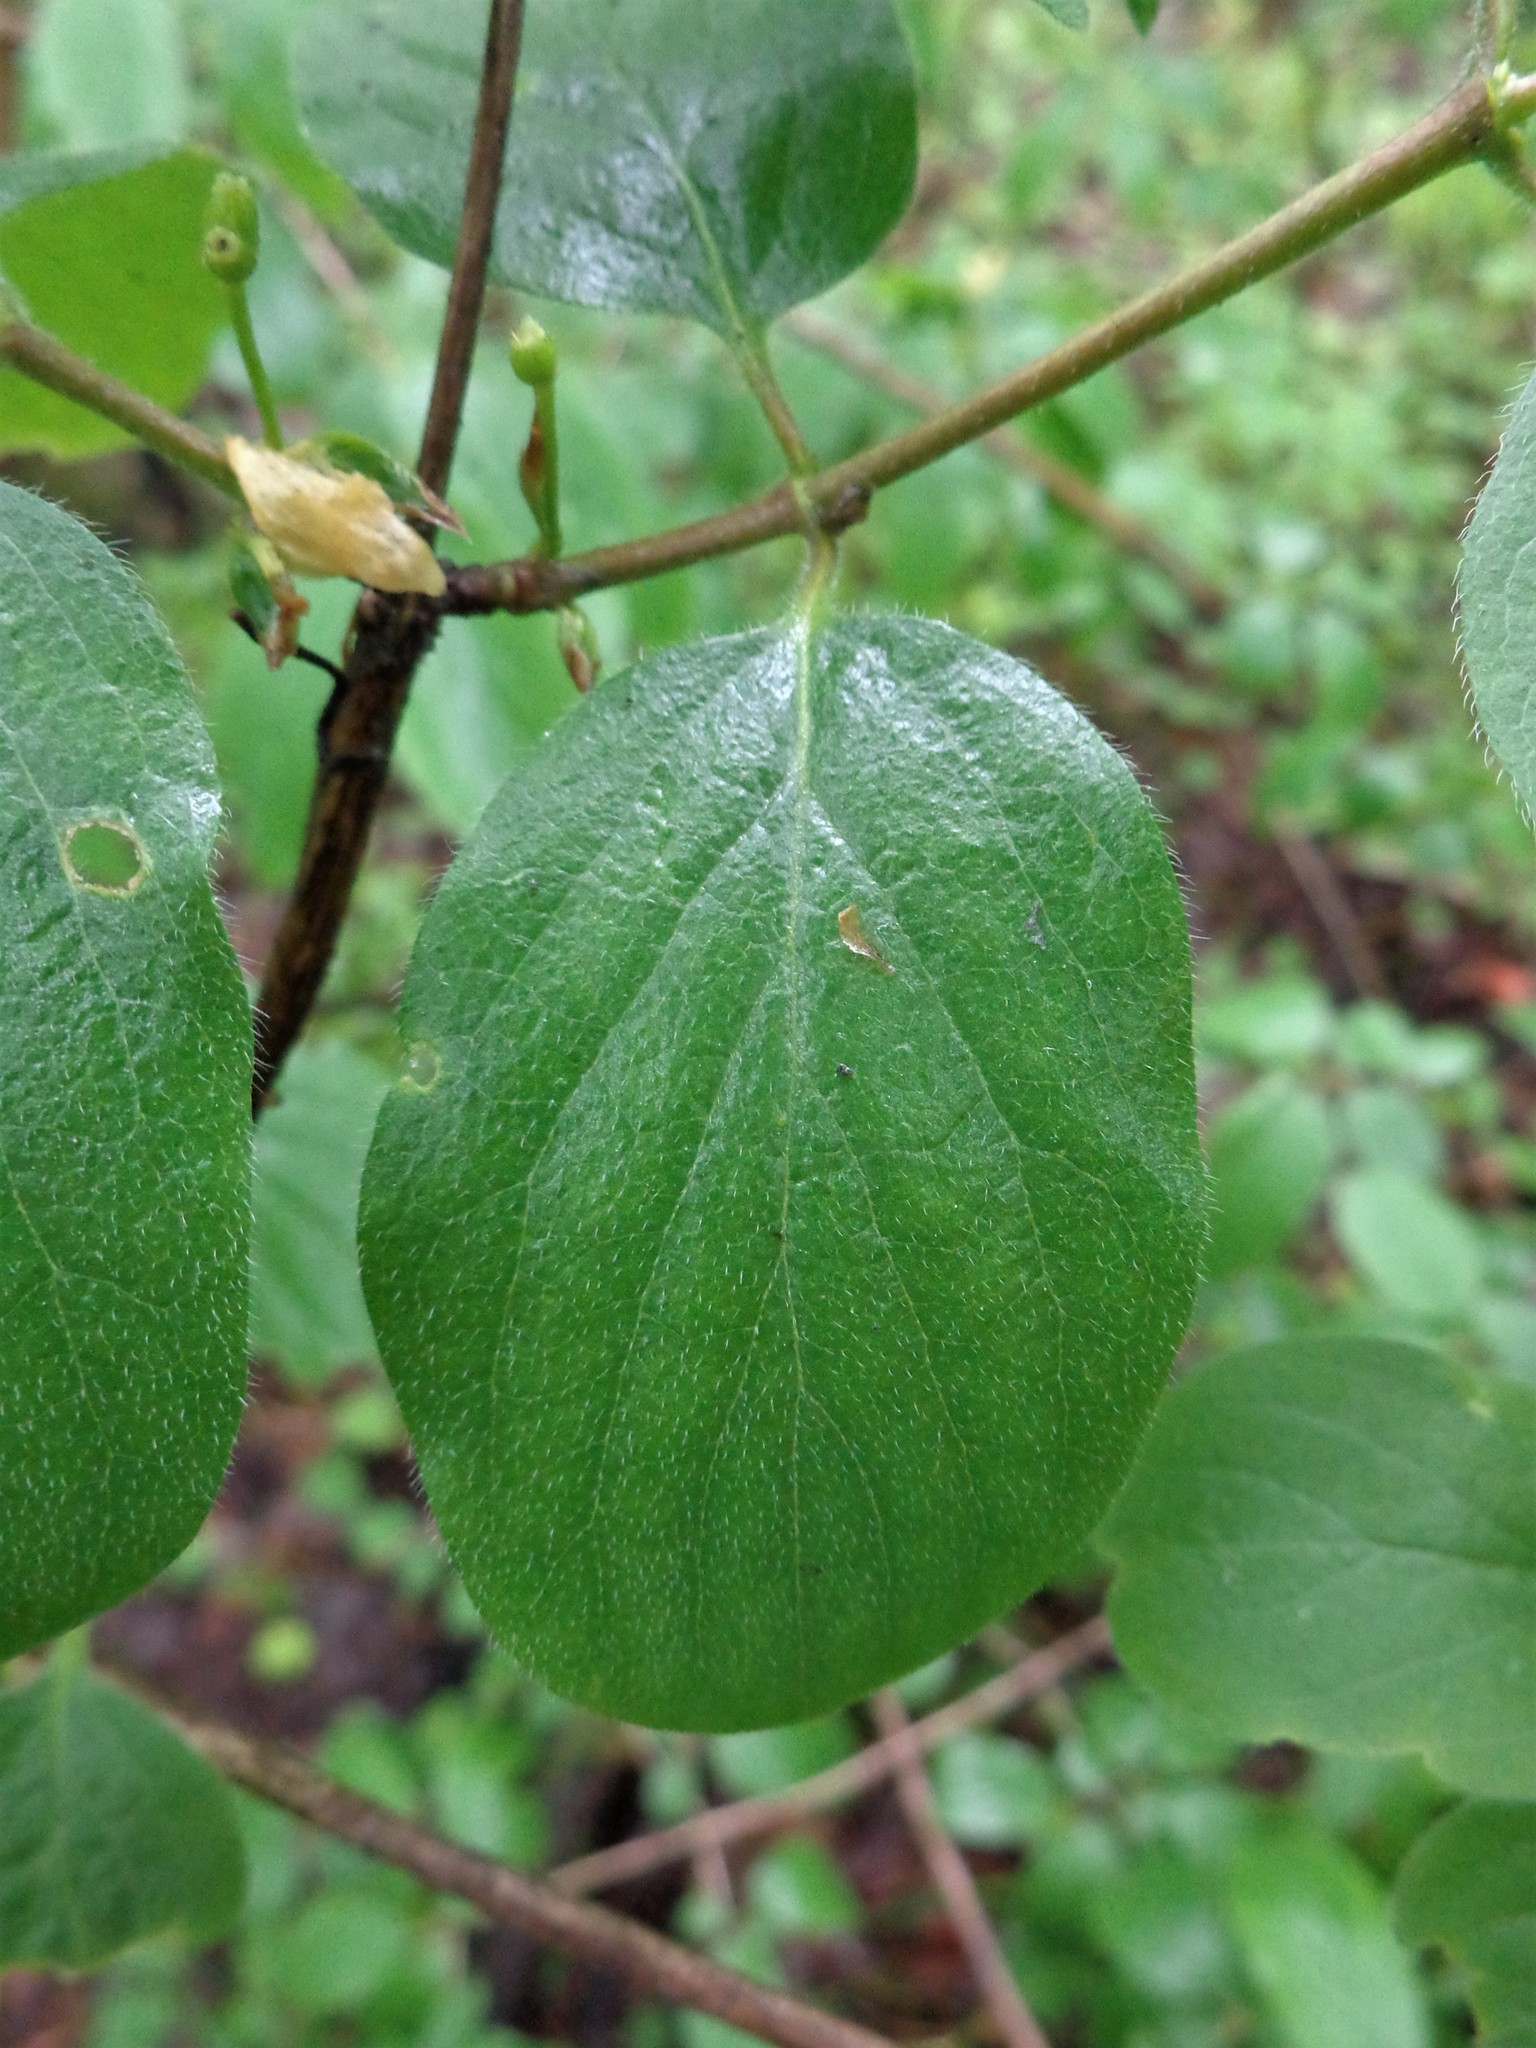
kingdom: Plantae
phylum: Tracheophyta
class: Magnoliopsida
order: Dipsacales
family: Caprifoliaceae
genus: Lonicera
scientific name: Lonicera xylosteum
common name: Fly honeysuckle
